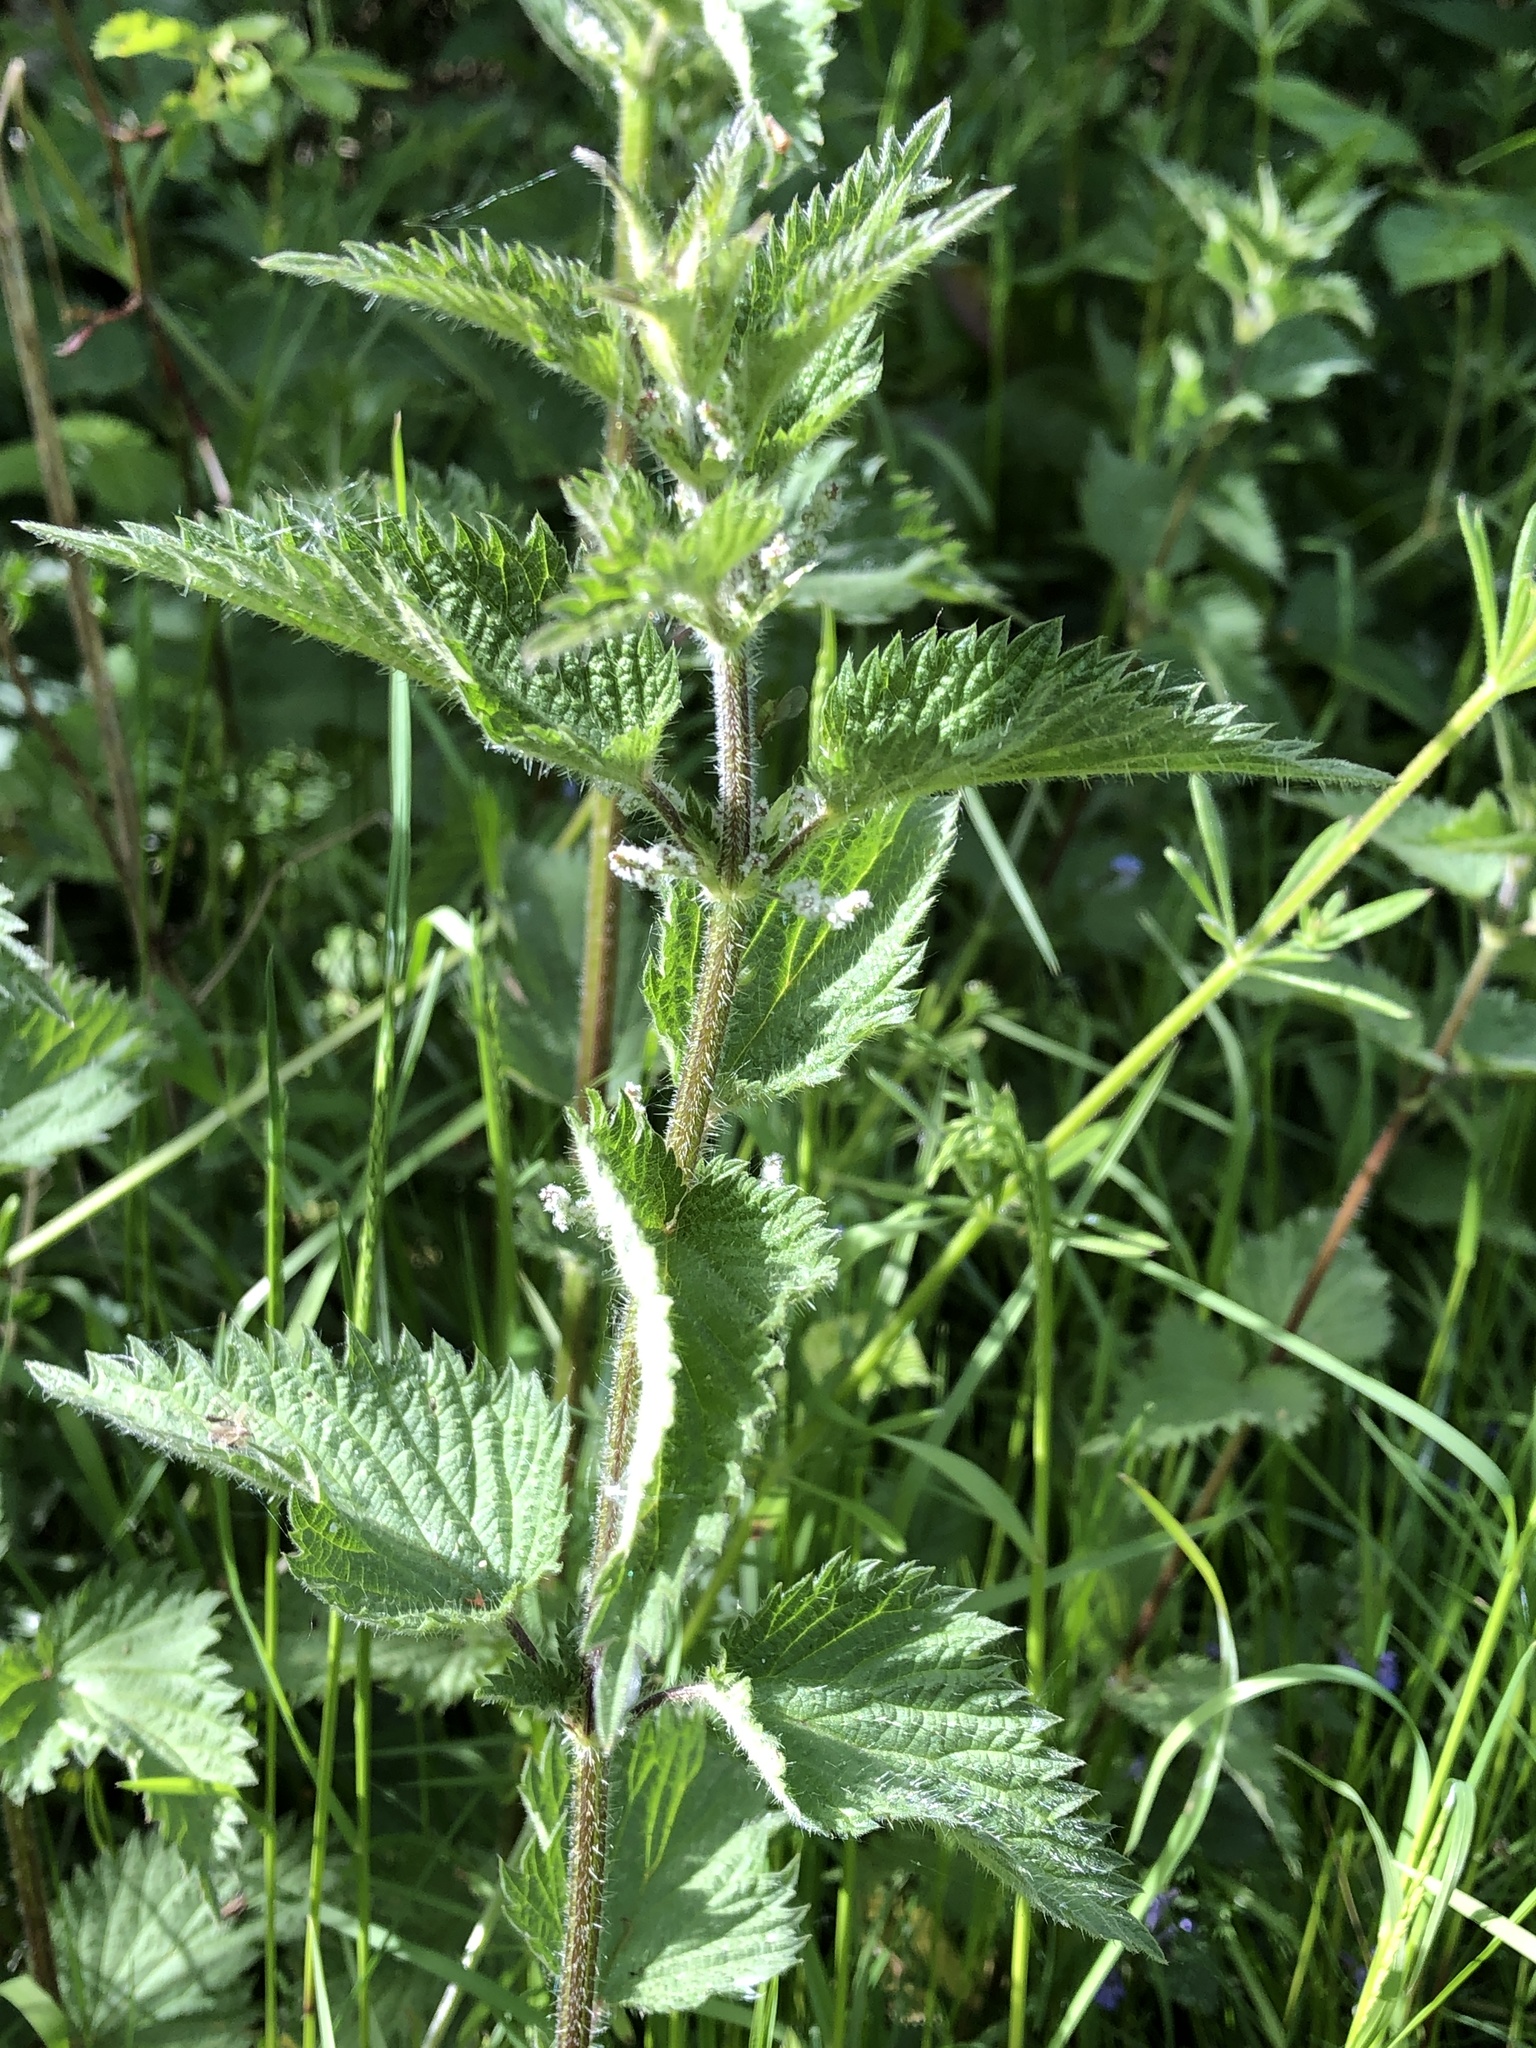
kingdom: Plantae
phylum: Tracheophyta
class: Magnoliopsida
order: Rosales
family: Urticaceae
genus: Urtica
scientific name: Urtica dioica
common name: Common nettle
